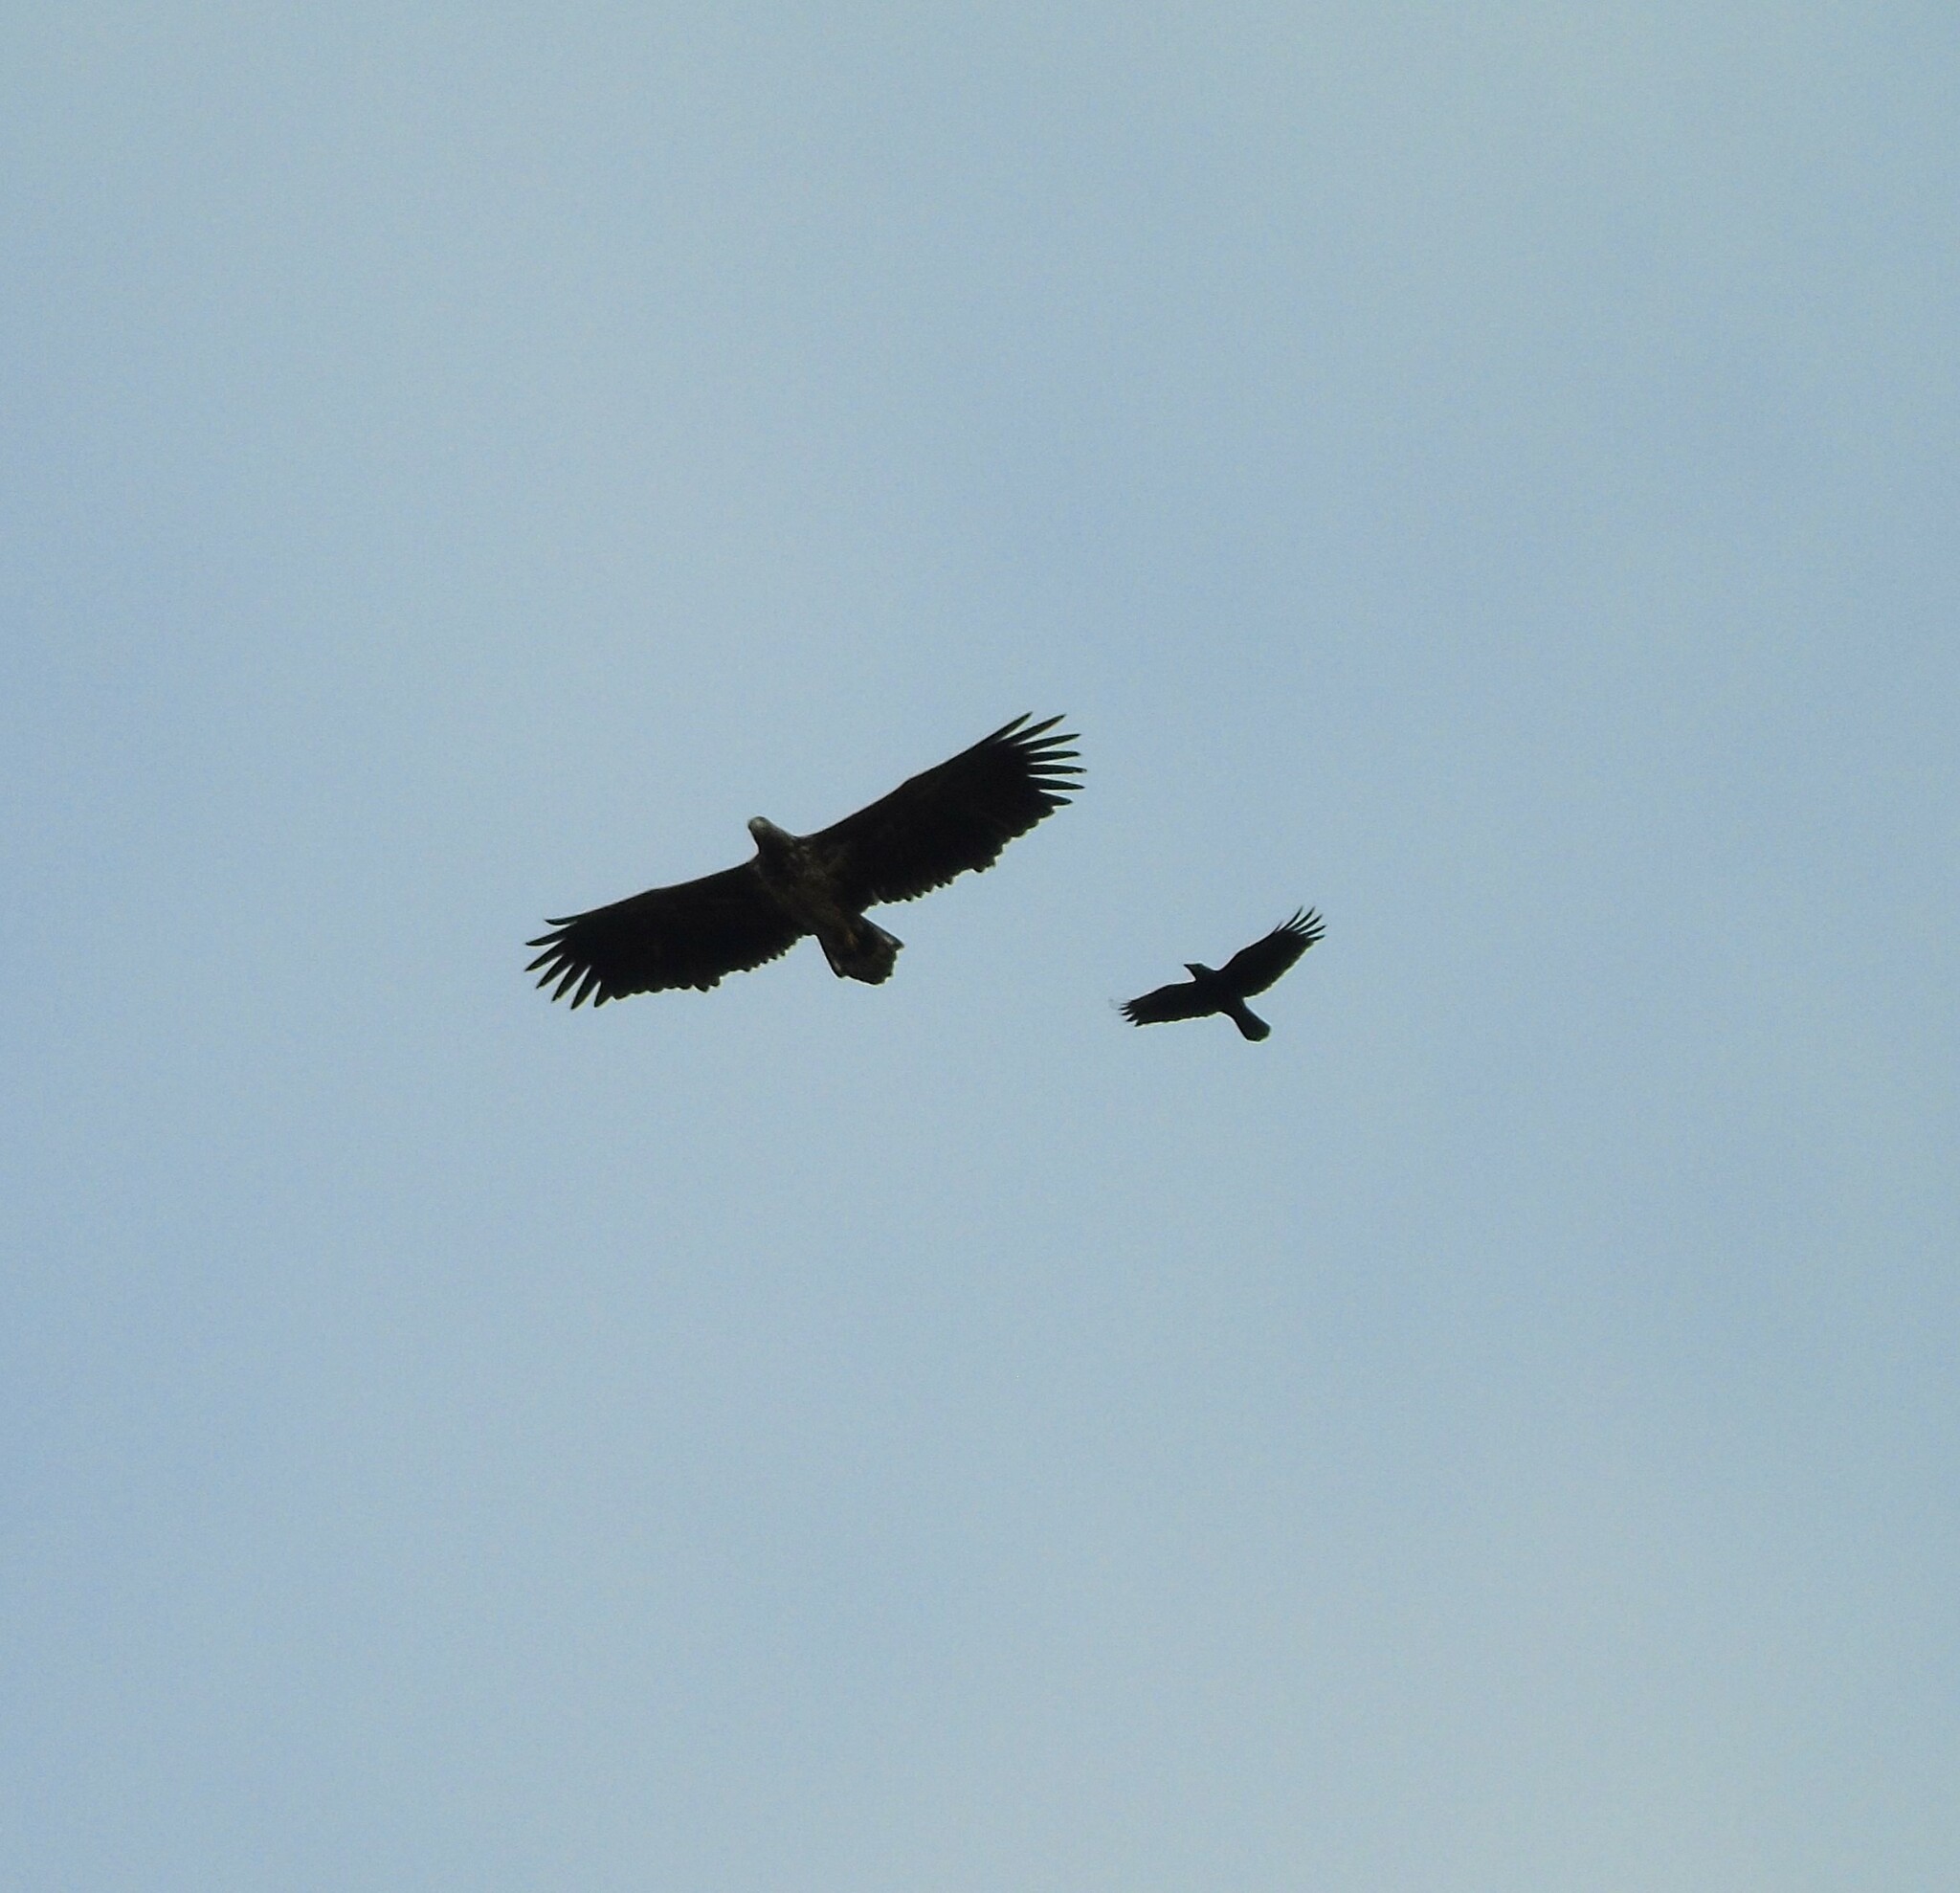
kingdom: Animalia
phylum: Chordata
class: Aves
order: Accipitriformes
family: Accipitridae
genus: Haliaeetus
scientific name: Haliaeetus albicilla
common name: White-tailed eagle
